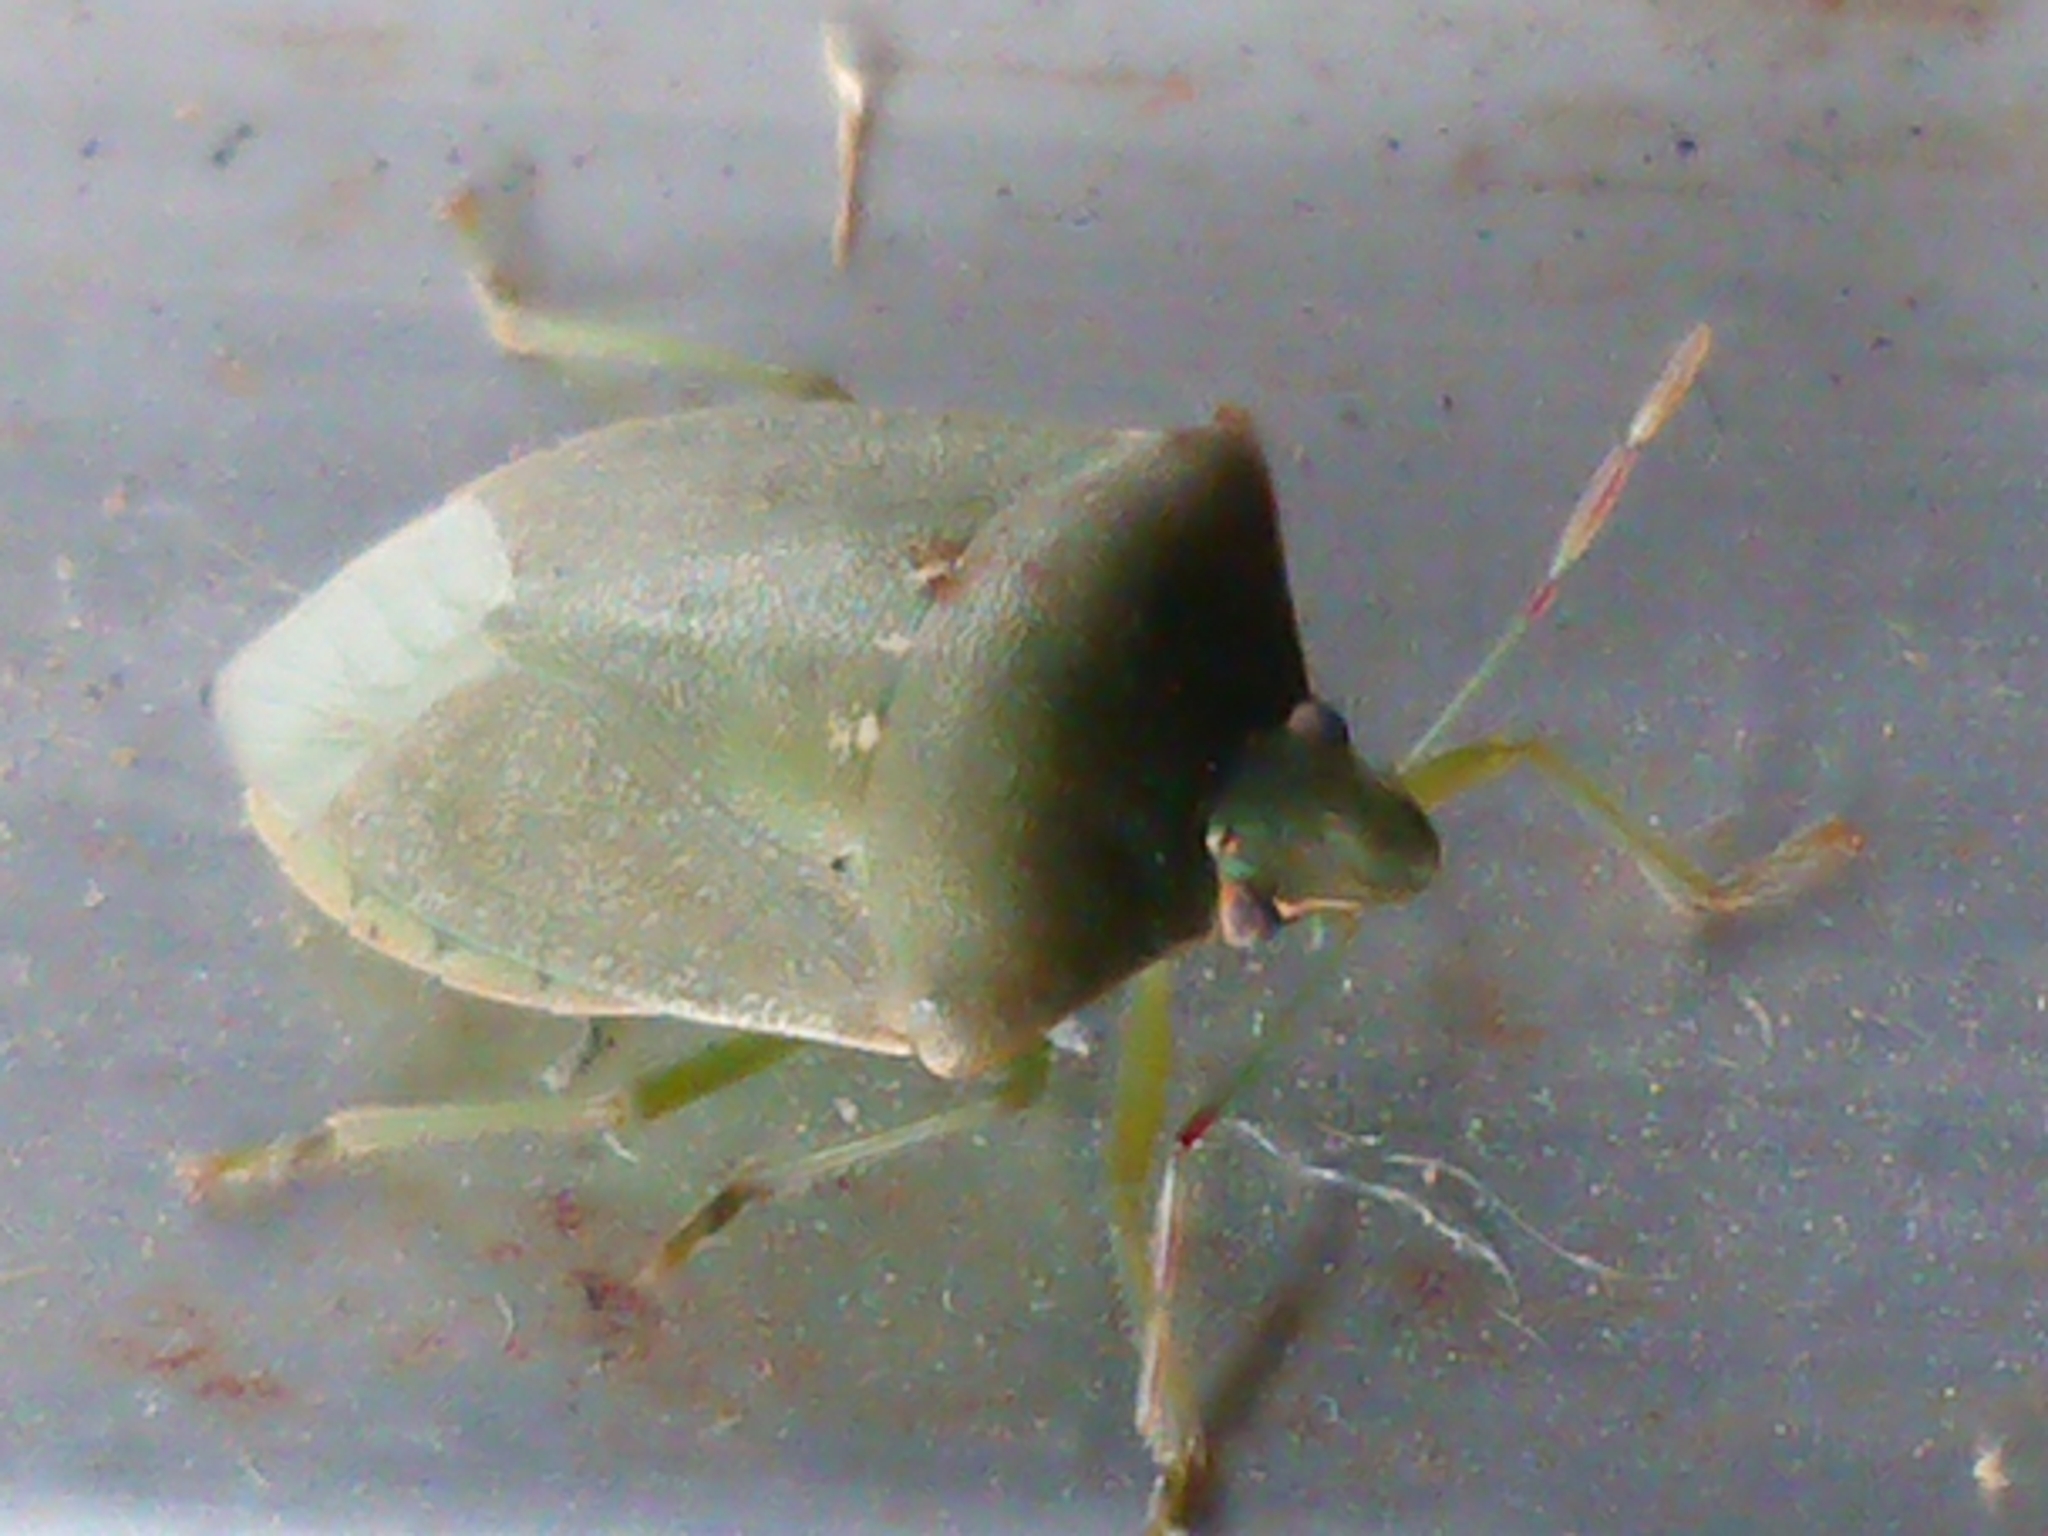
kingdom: Animalia
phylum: Arthropoda
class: Insecta
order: Hemiptera
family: Pentatomidae
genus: Nezara
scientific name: Nezara viridula
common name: Southern green stink bug
